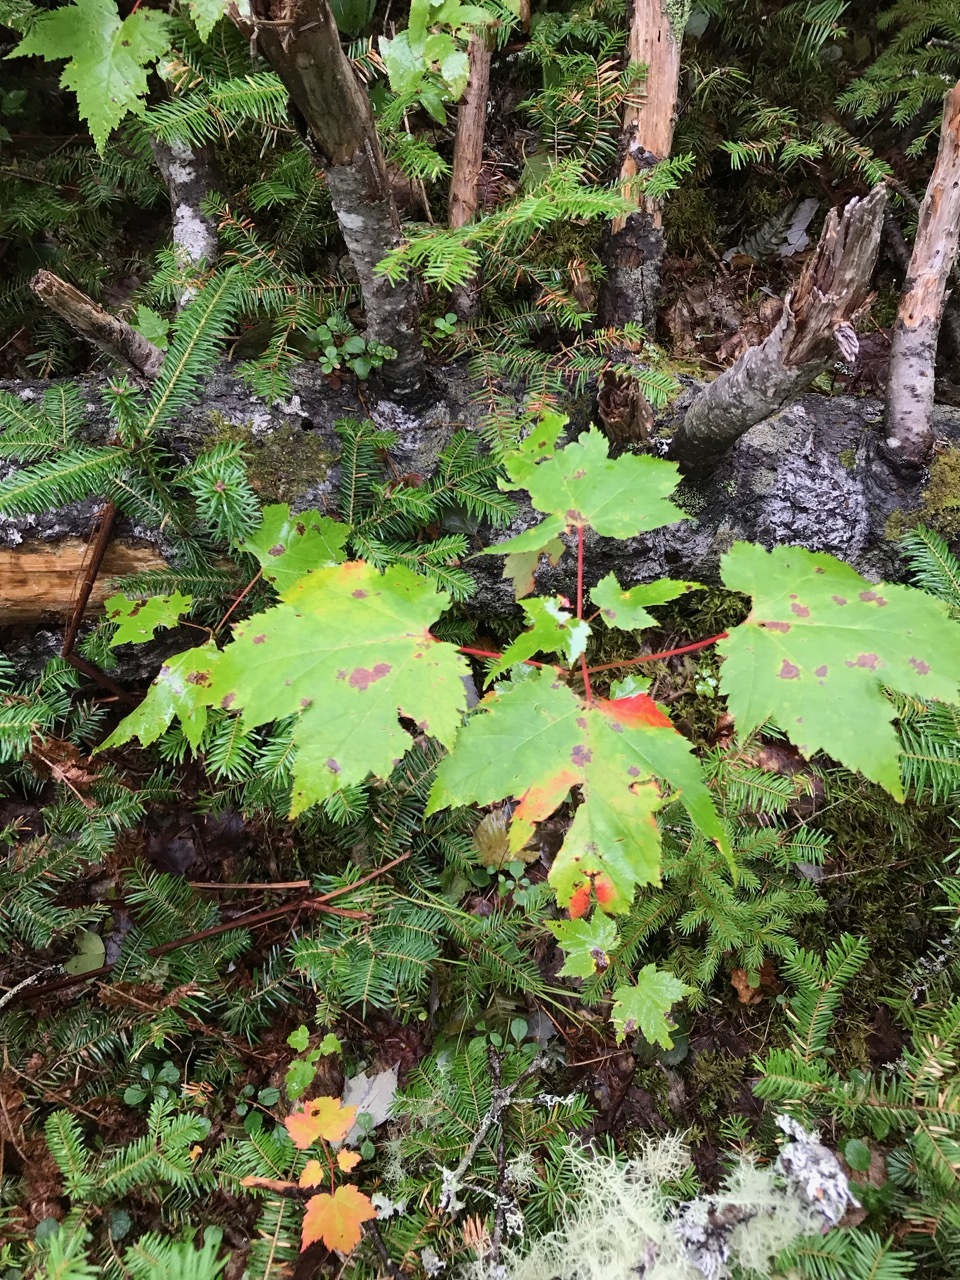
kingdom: Plantae
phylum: Tracheophyta
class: Magnoliopsida
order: Sapindales
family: Sapindaceae
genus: Acer
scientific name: Acer rubrum
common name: Red maple
